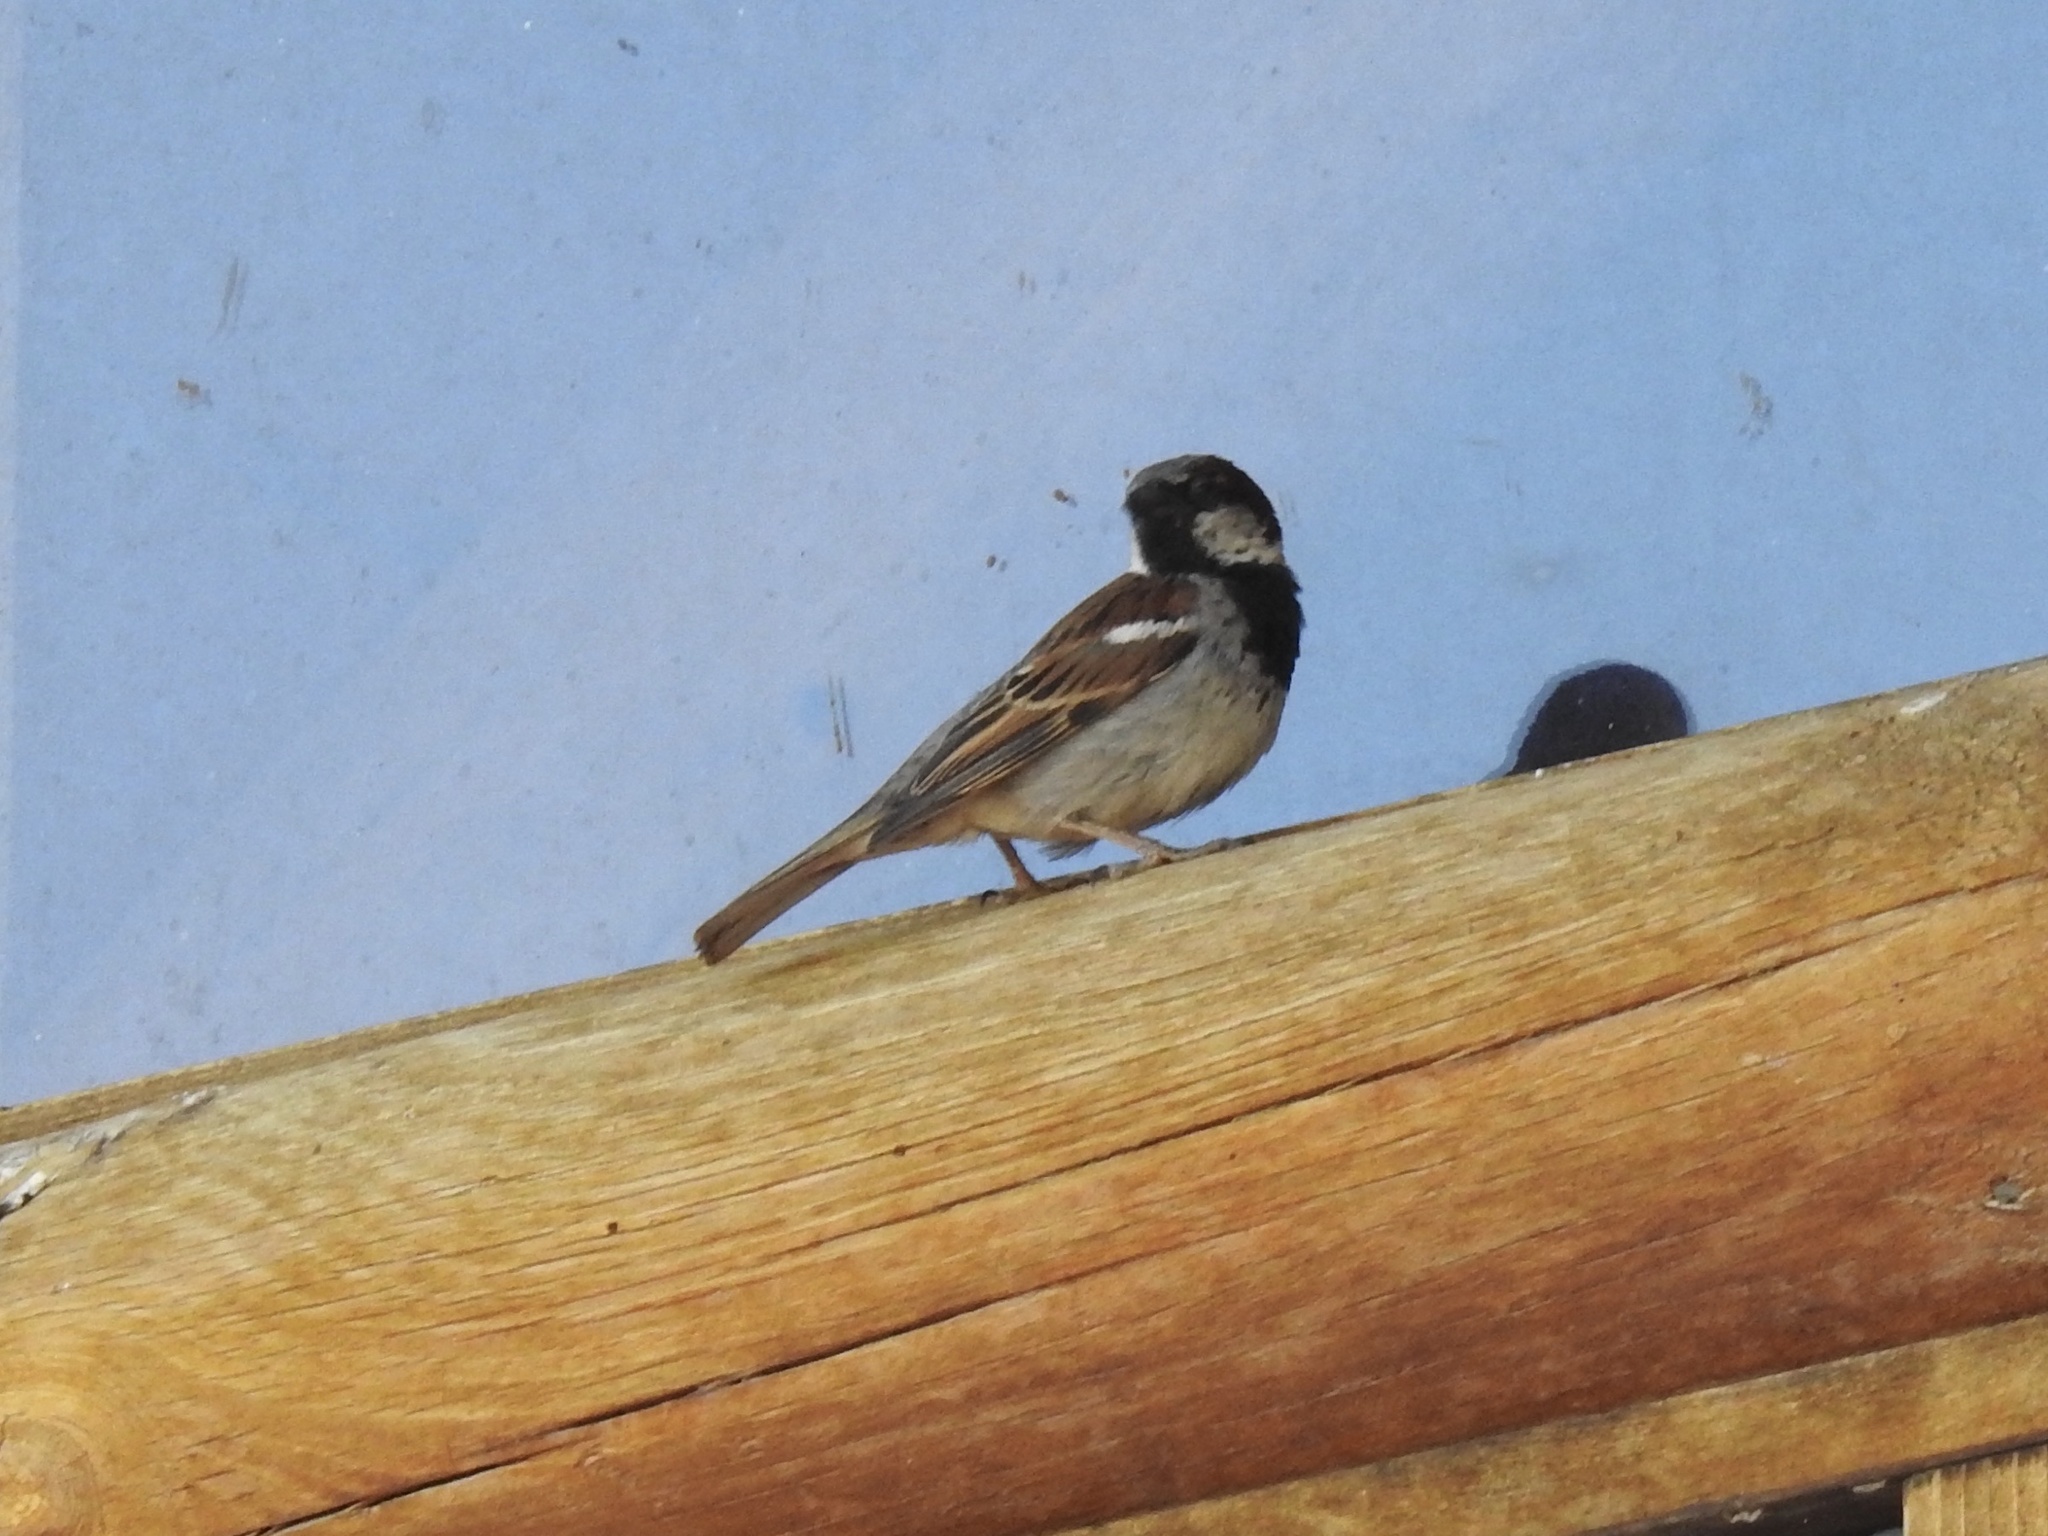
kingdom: Animalia
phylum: Chordata
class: Aves
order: Passeriformes
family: Passeridae
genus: Passer
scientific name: Passer domesticus
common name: House sparrow
